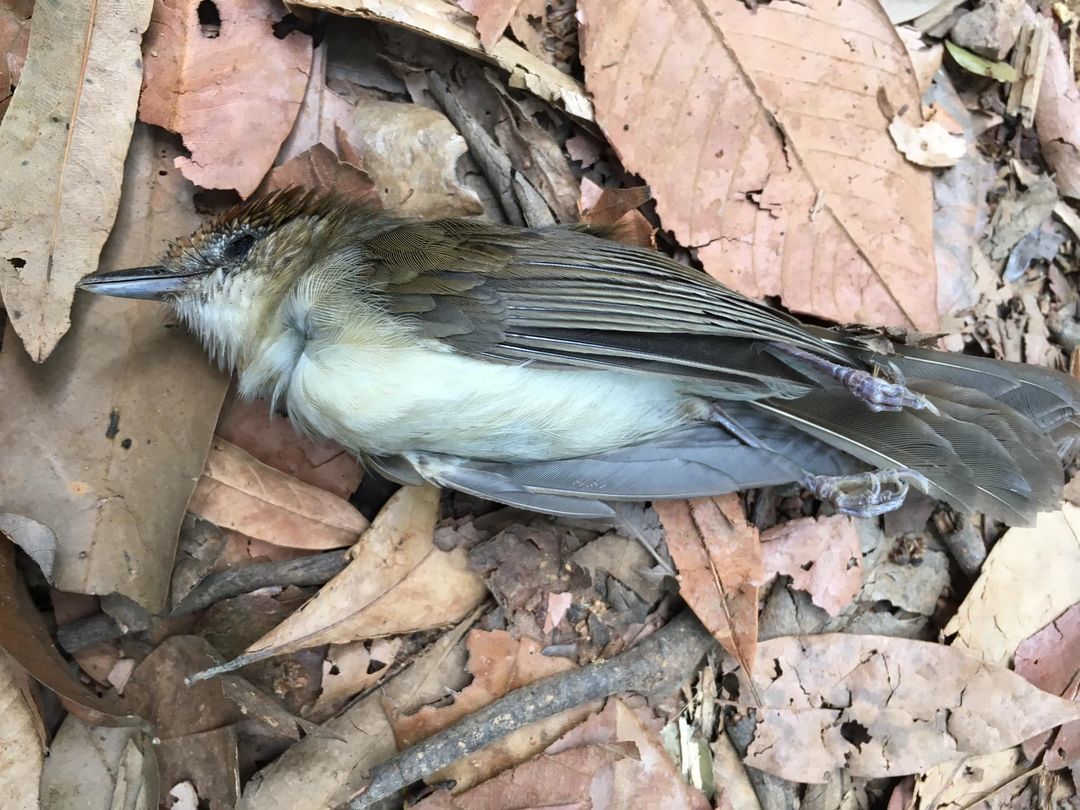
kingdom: Animalia
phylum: Chordata
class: Aves
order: Passeriformes
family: Pellorneidae
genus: Malacopteron
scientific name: Malacopteron cinereum
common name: Scaly-crowned babbler
